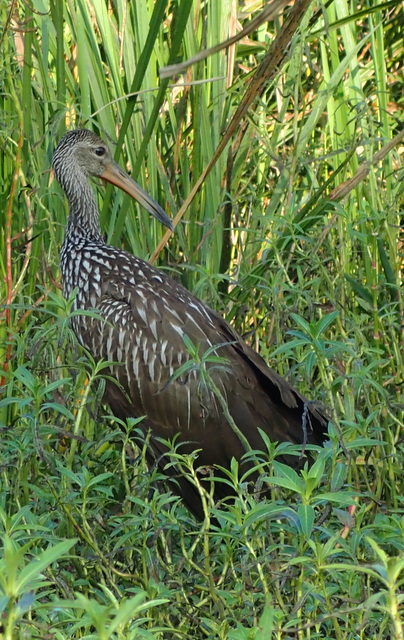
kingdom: Animalia
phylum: Chordata
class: Aves
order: Gruiformes
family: Aramidae
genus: Aramus
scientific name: Aramus guarauna
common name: Limpkin
